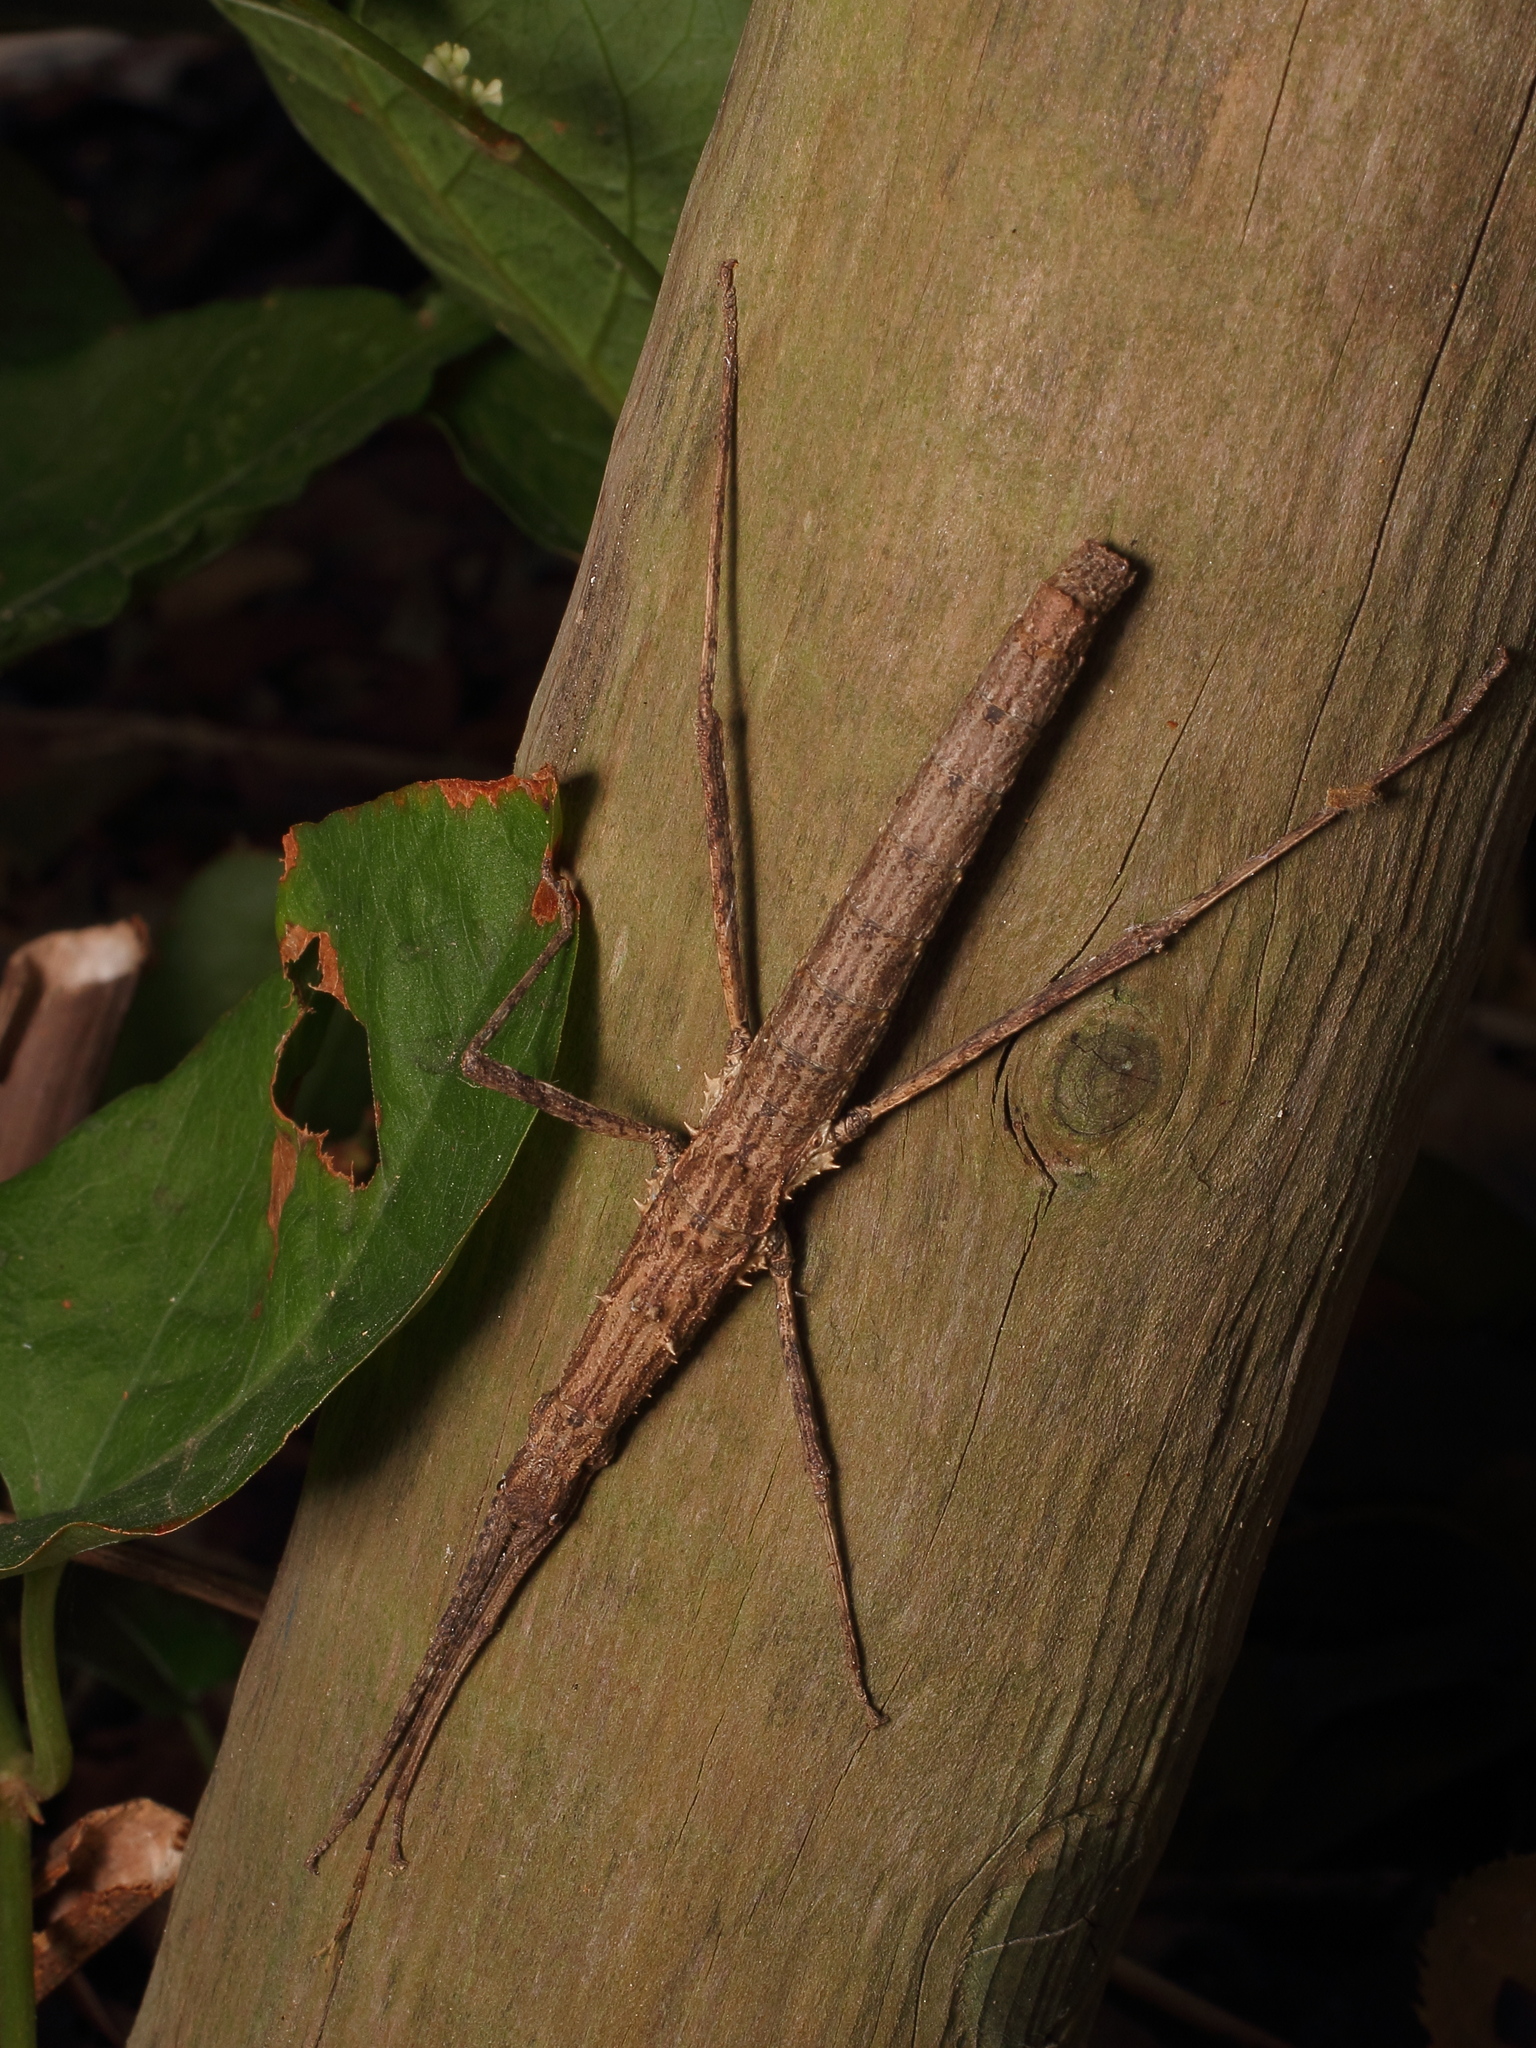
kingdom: Animalia
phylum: Arthropoda
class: Insecta
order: Phasmida
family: Lonchodidae
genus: Neohirasea
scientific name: Neohirasea japonica
